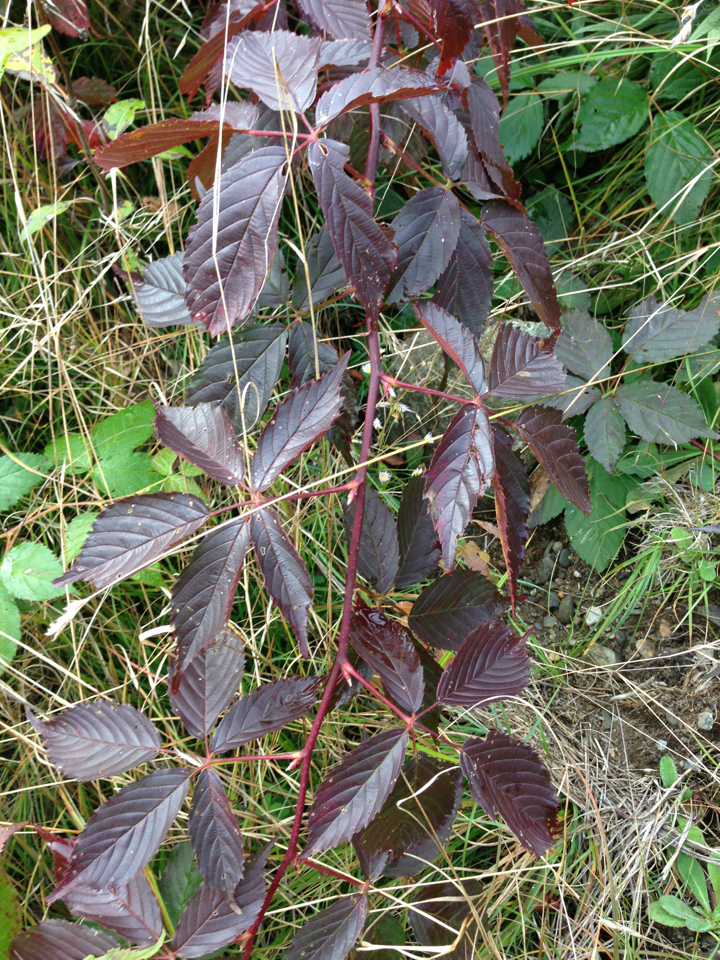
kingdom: Plantae
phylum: Tracheophyta
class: Magnoliopsida
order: Rosales
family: Rosaceae
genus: Rubus
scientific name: Rubus canadensis
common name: Smooth blackberry
